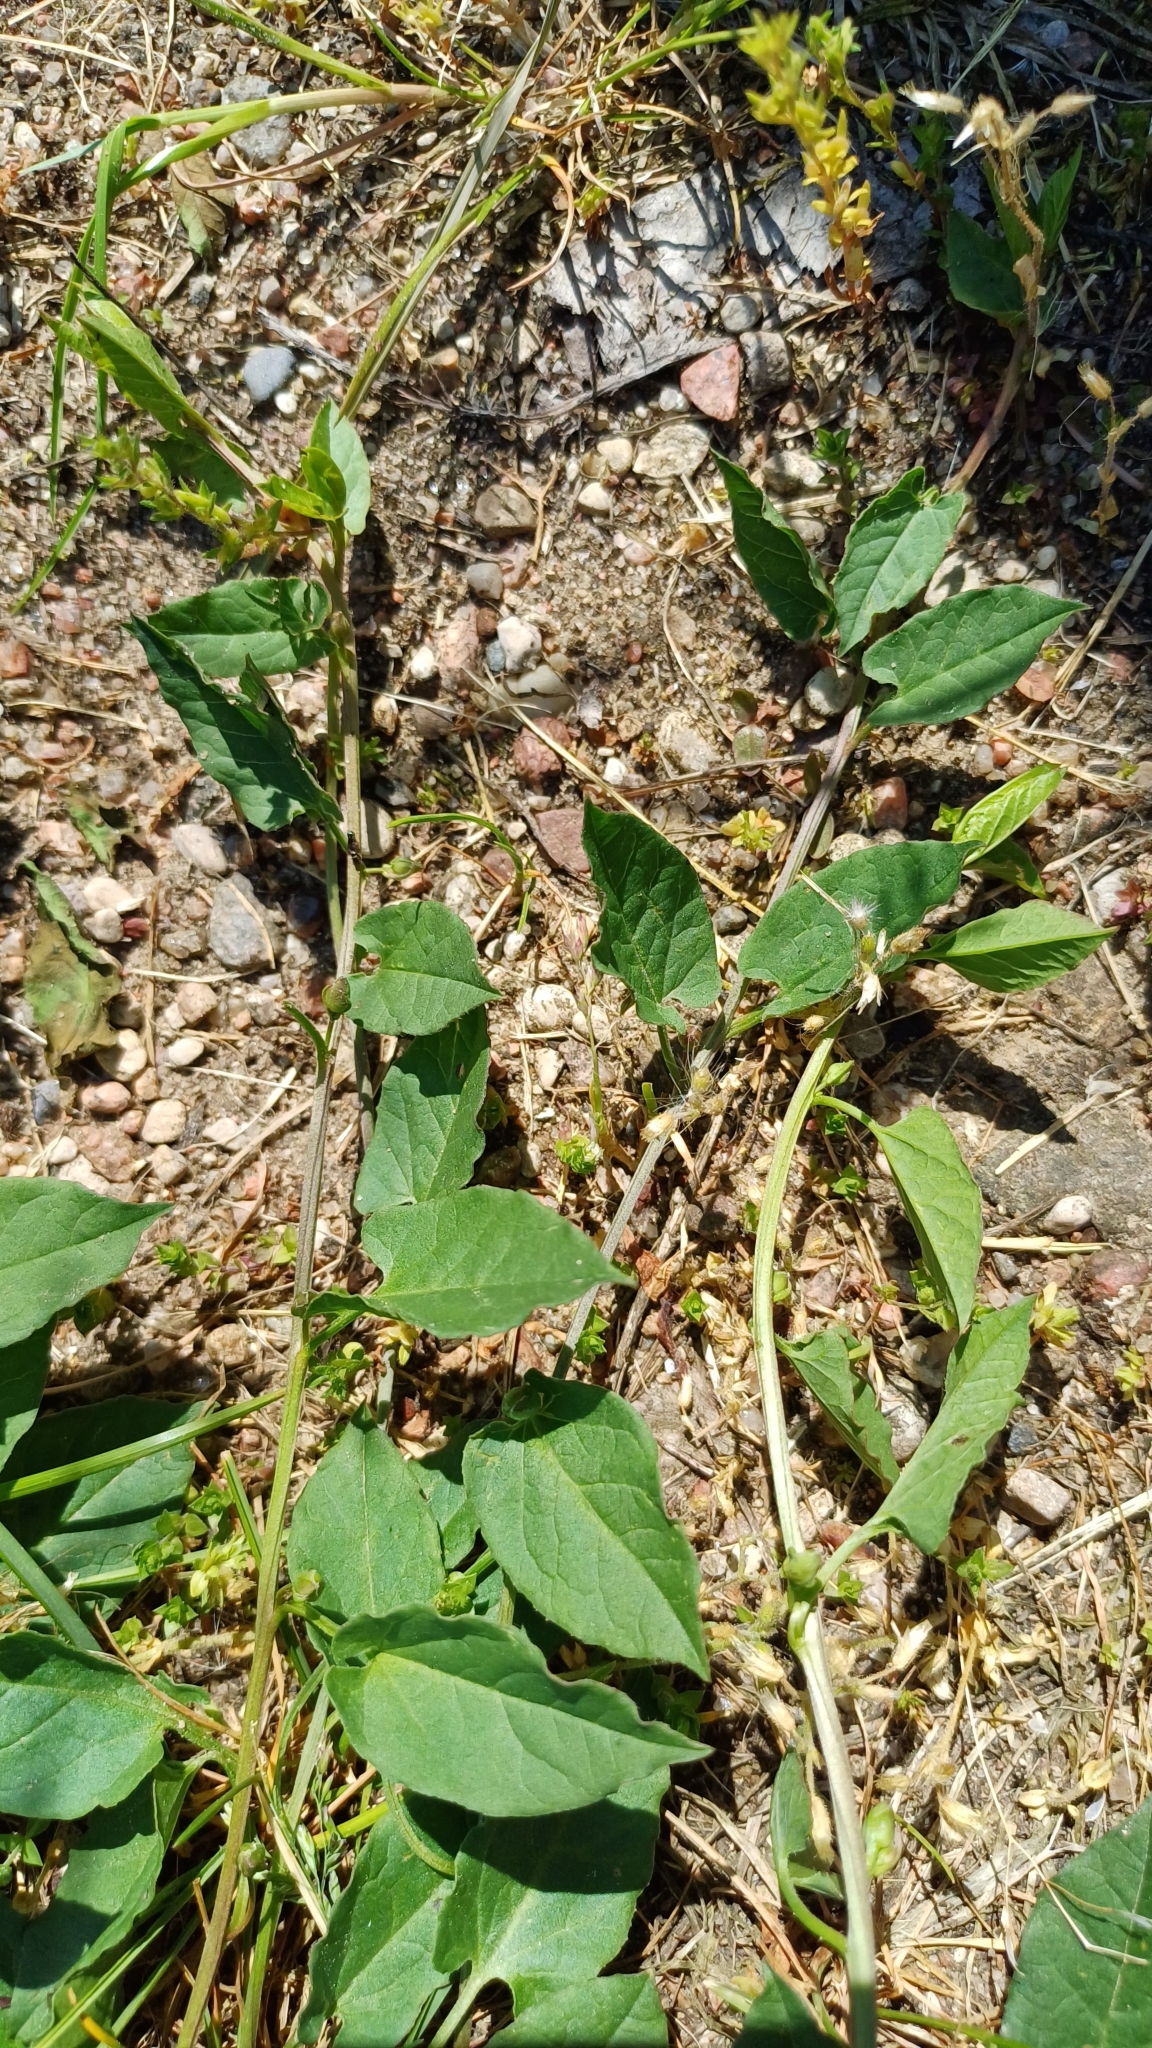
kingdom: Plantae
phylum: Tracheophyta
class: Magnoliopsida
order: Solanales
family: Convolvulaceae
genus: Convolvulus
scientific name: Convolvulus arvensis
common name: Field bindweed
